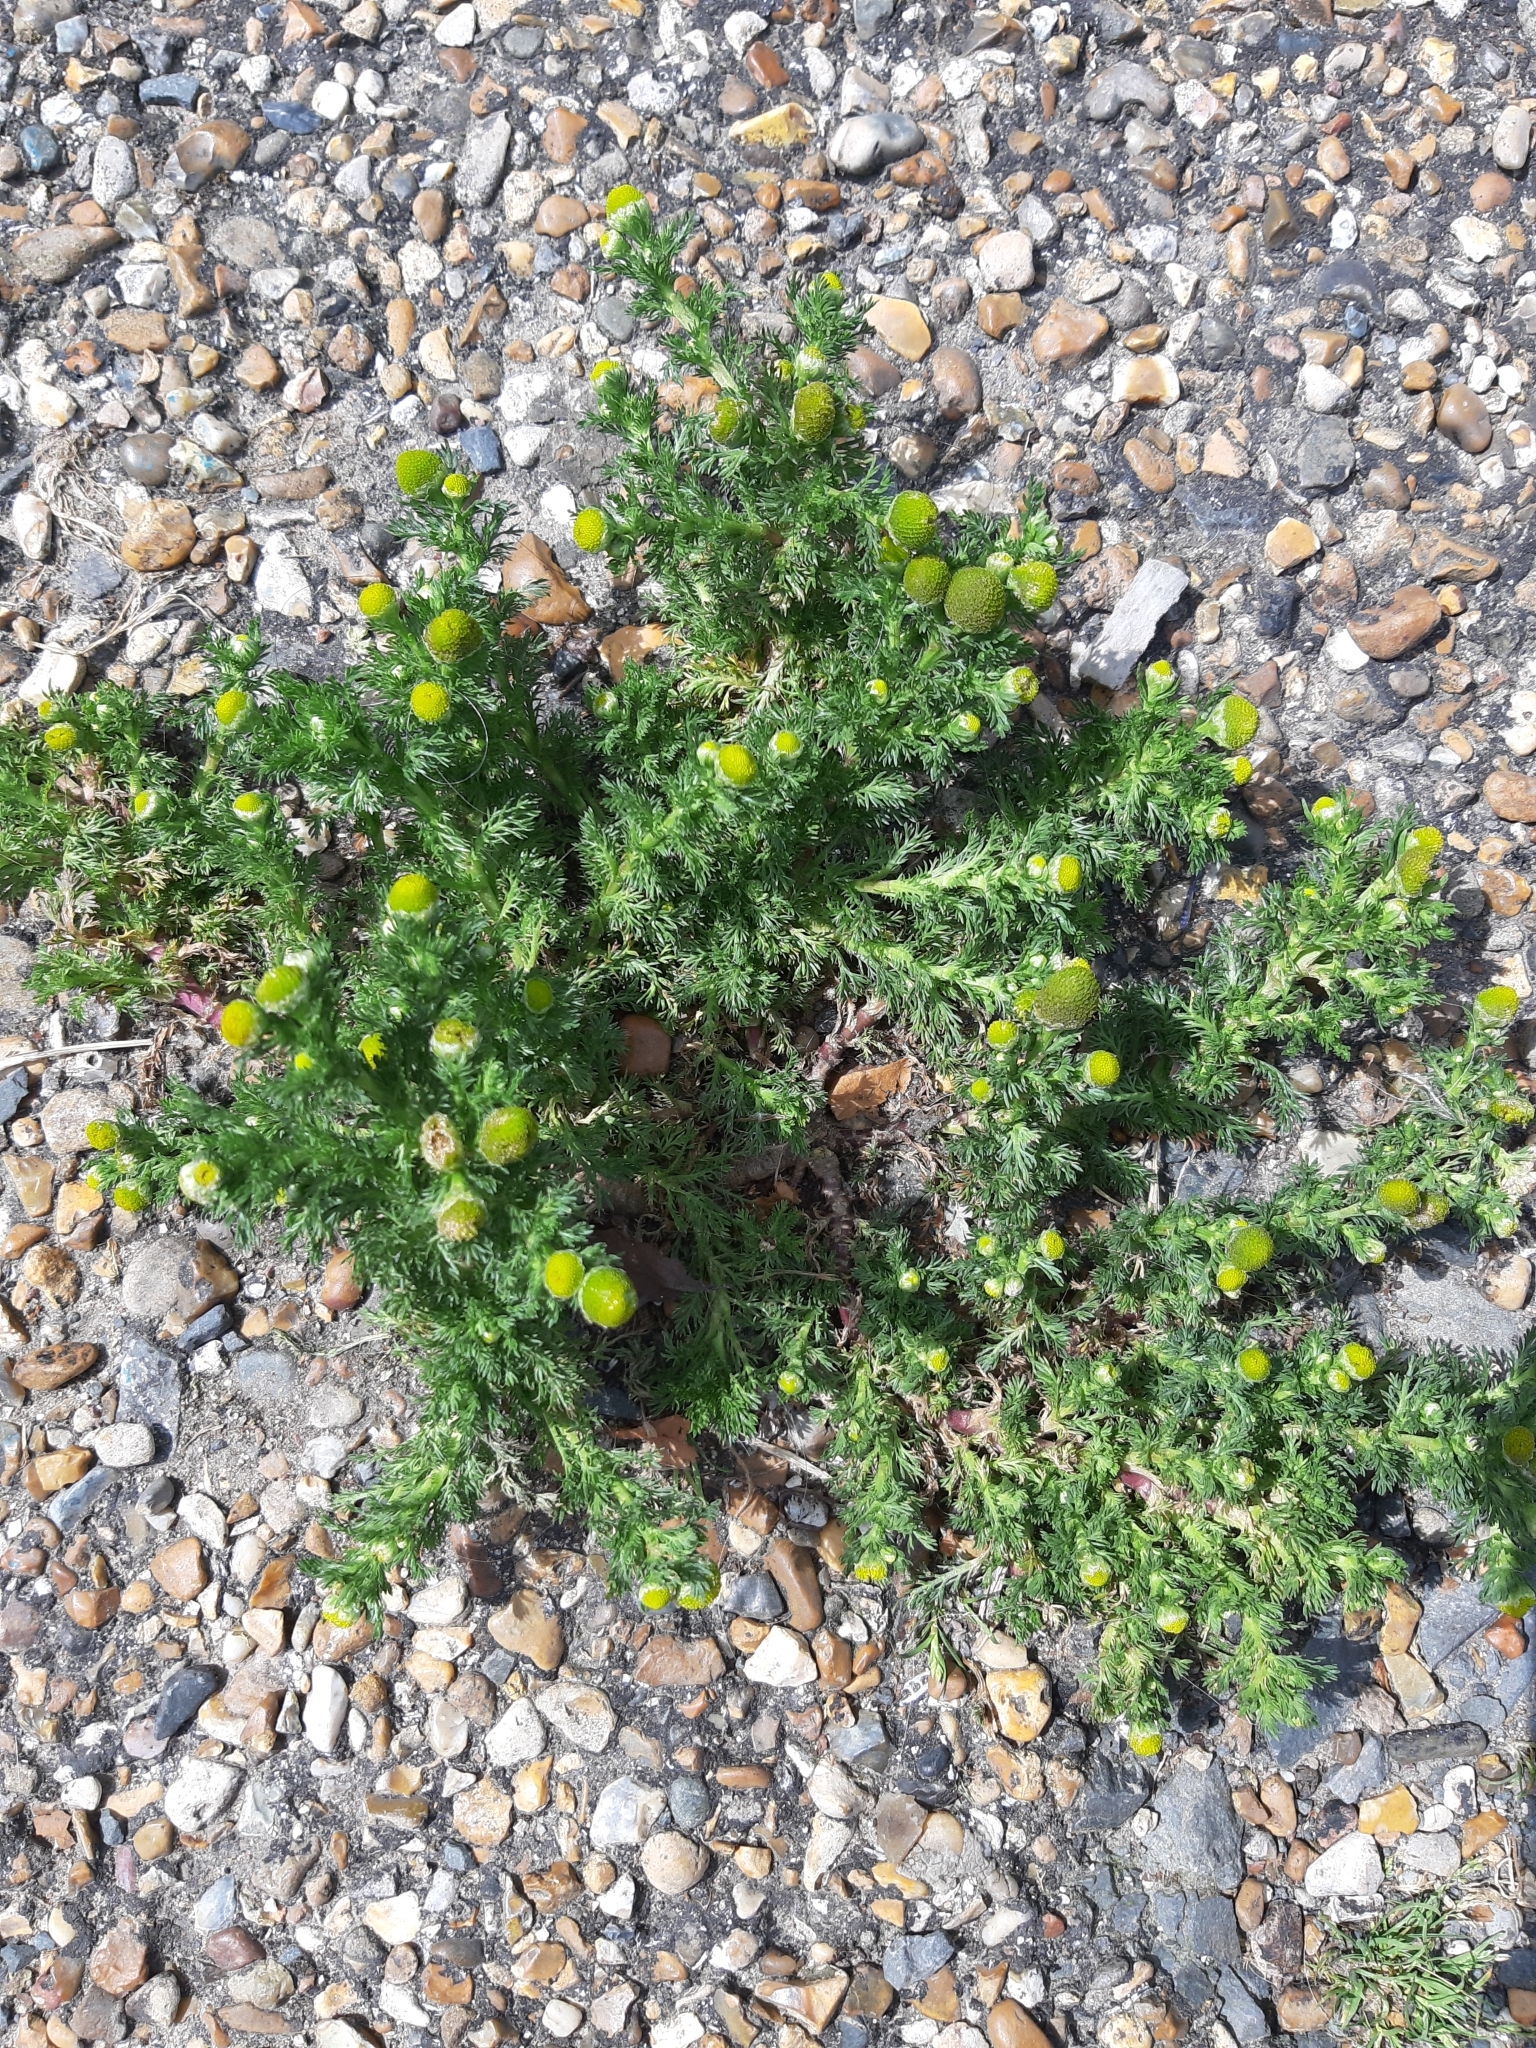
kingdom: Plantae
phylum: Tracheophyta
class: Magnoliopsida
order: Asterales
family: Asteraceae
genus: Matricaria
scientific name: Matricaria discoidea
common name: Disc mayweed
